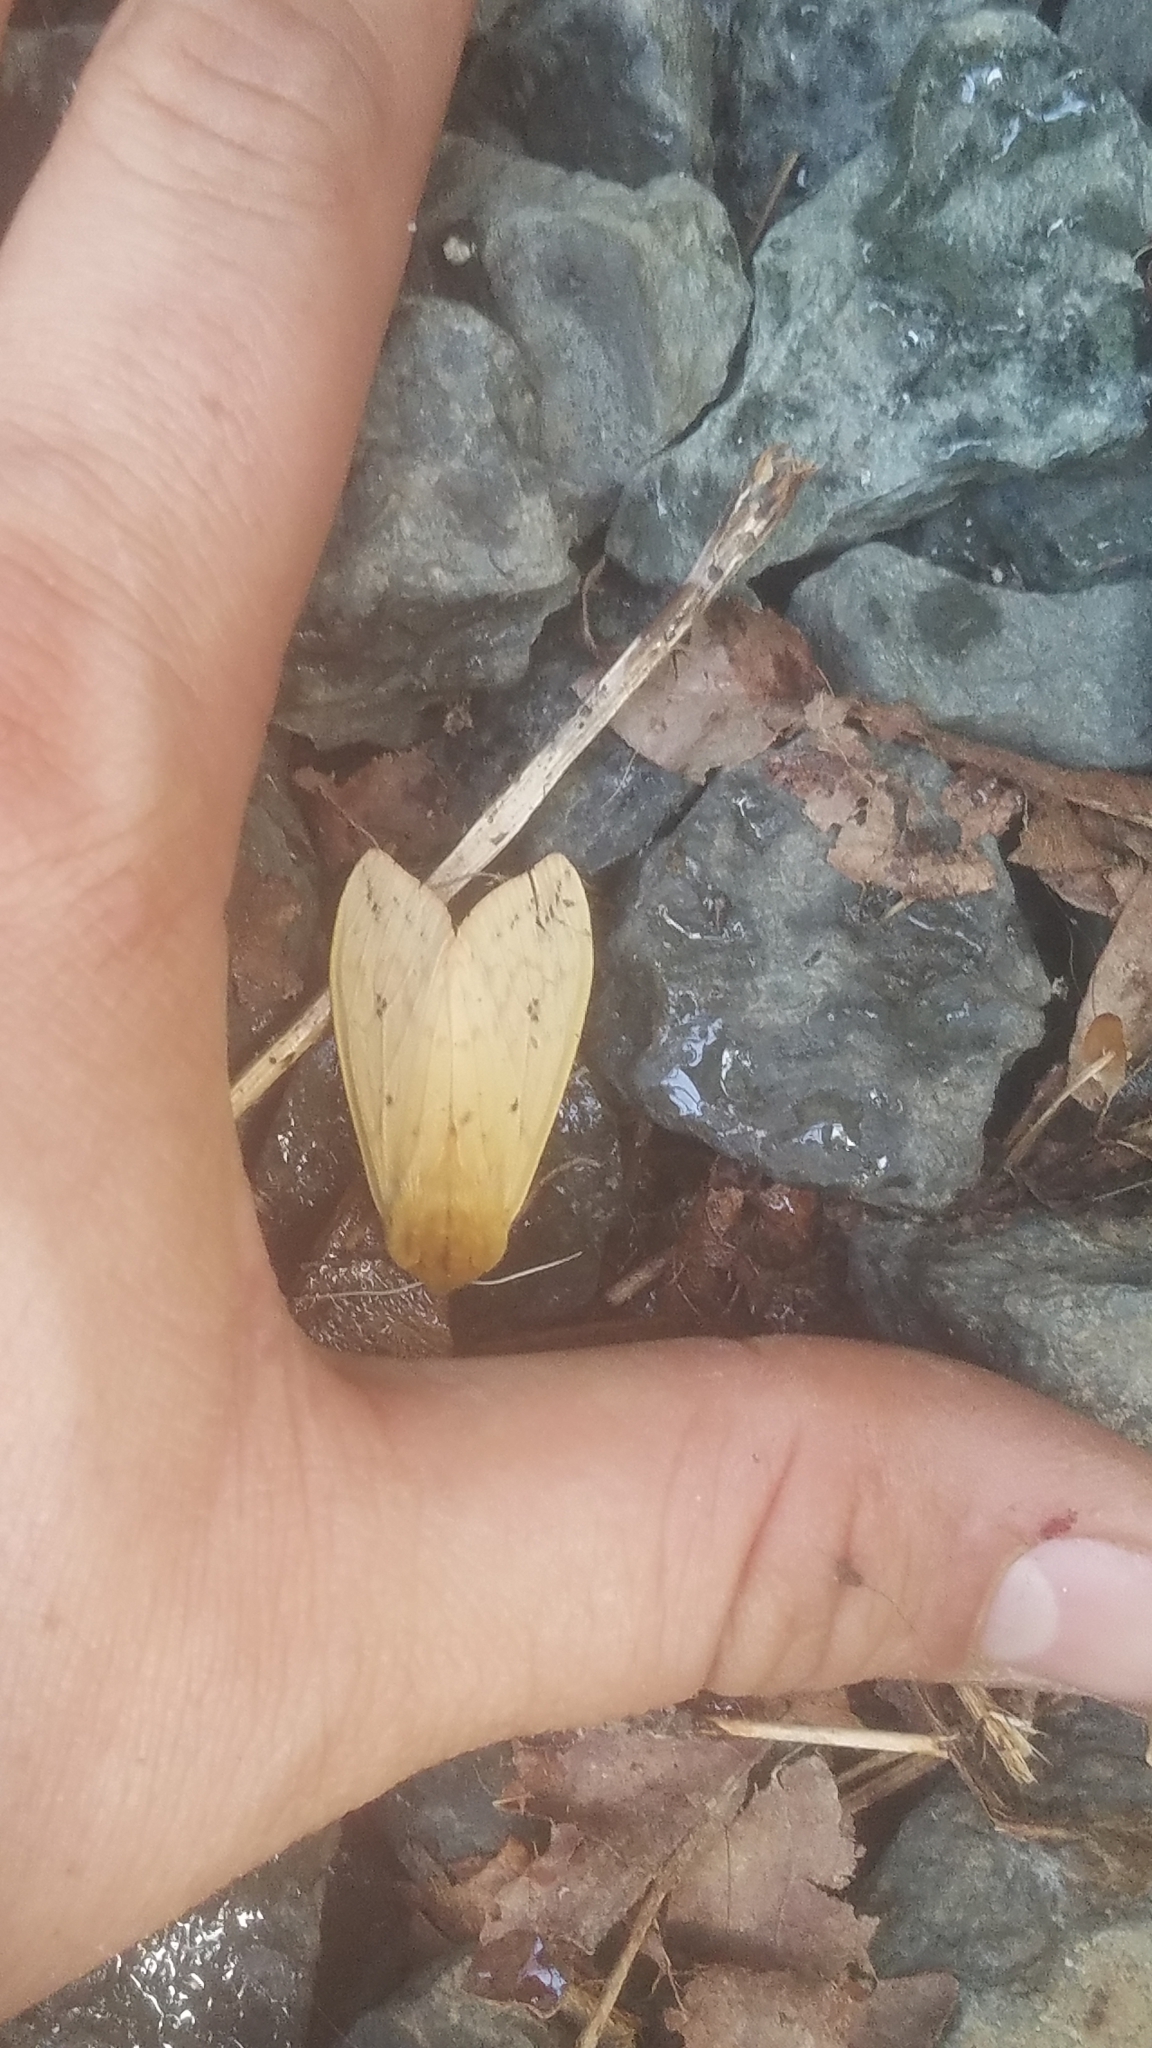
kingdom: Animalia
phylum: Arthropoda
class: Insecta
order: Lepidoptera
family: Erebidae
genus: Pyrrharctia
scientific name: Pyrrharctia isabella
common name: Isabella tiger moth
